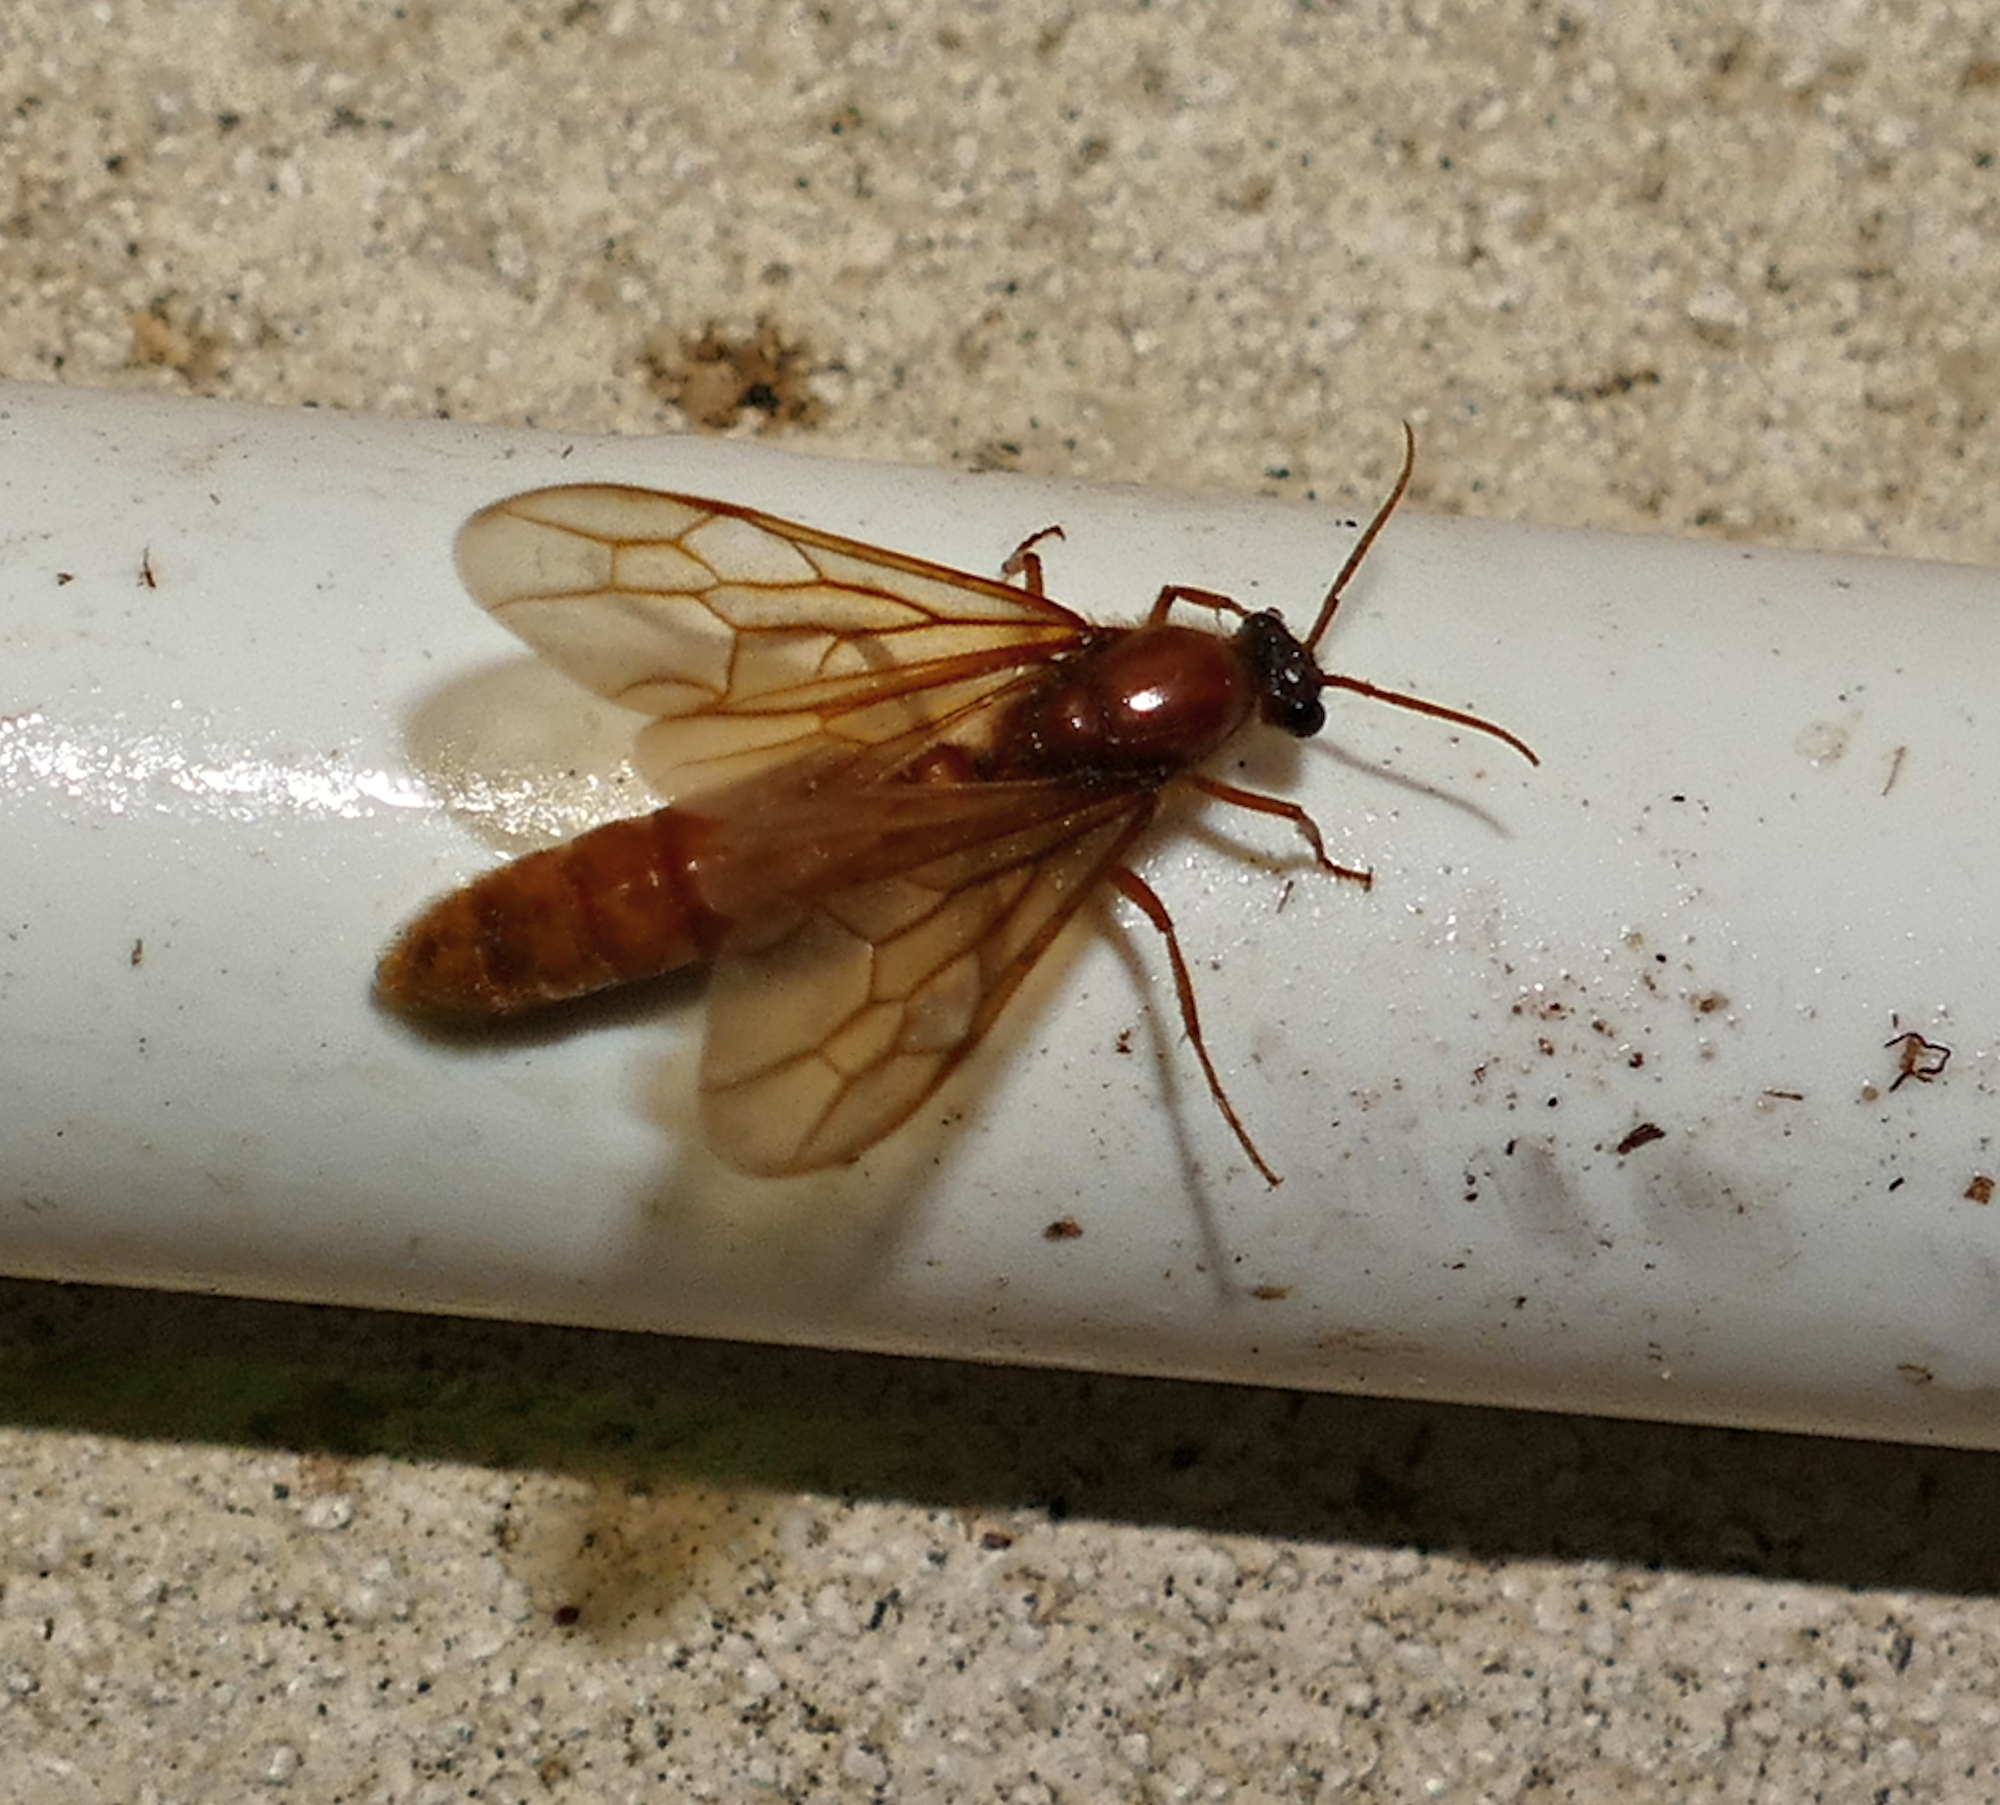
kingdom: Animalia
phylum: Arthropoda
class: Insecta
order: Hymenoptera
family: Formicidae
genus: Labidus
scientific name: Labidus coecus
